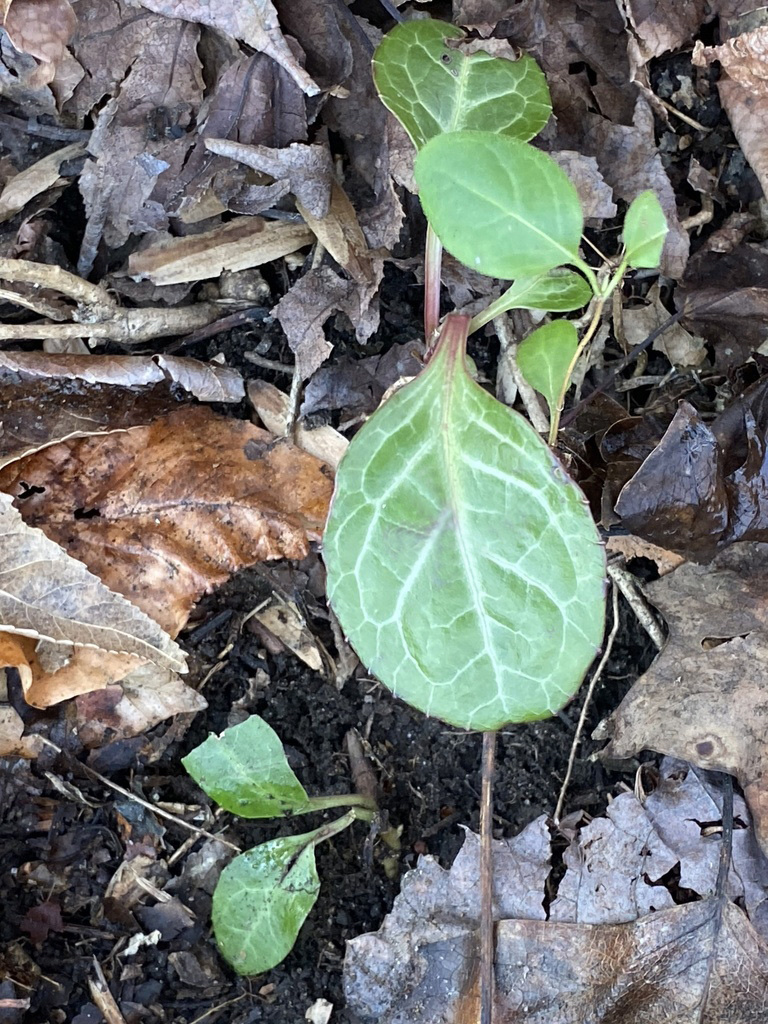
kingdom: Plantae
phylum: Tracheophyta
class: Magnoliopsida
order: Ericales
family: Ericaceae
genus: Pyrola
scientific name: Pyrola americana
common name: American wintergreen
